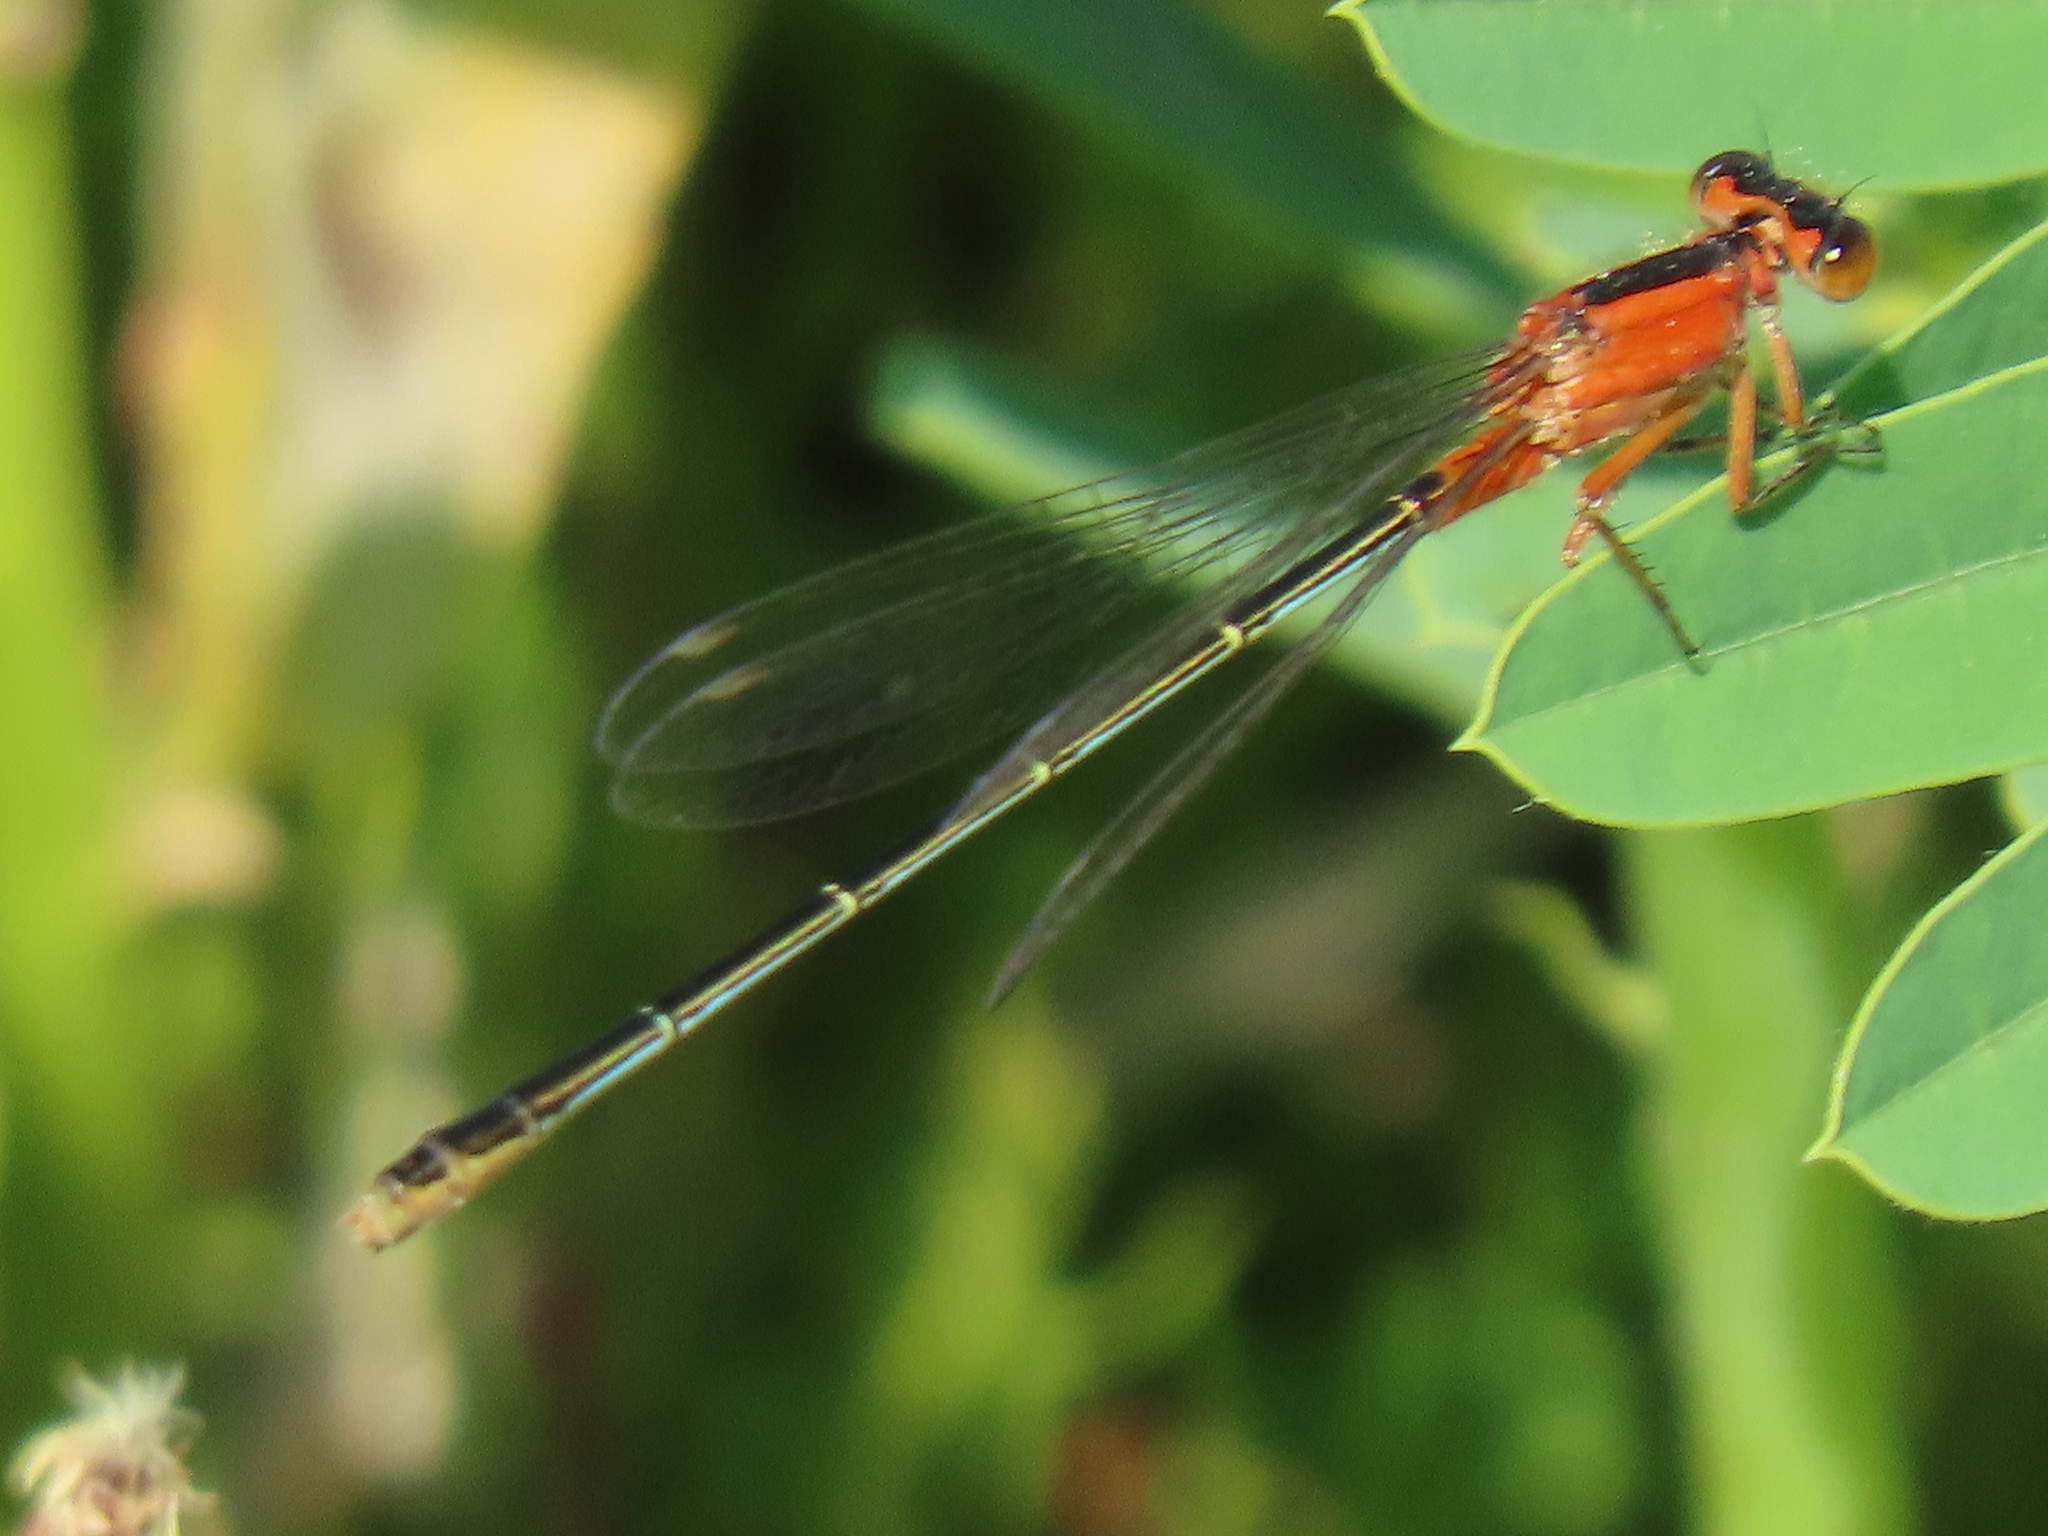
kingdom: Animalia
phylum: Arthropoda
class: Insecta
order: Odonata
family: Coenagrionidae
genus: Ischnura
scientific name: Ischnura ramburii
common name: Rambur's forktail
